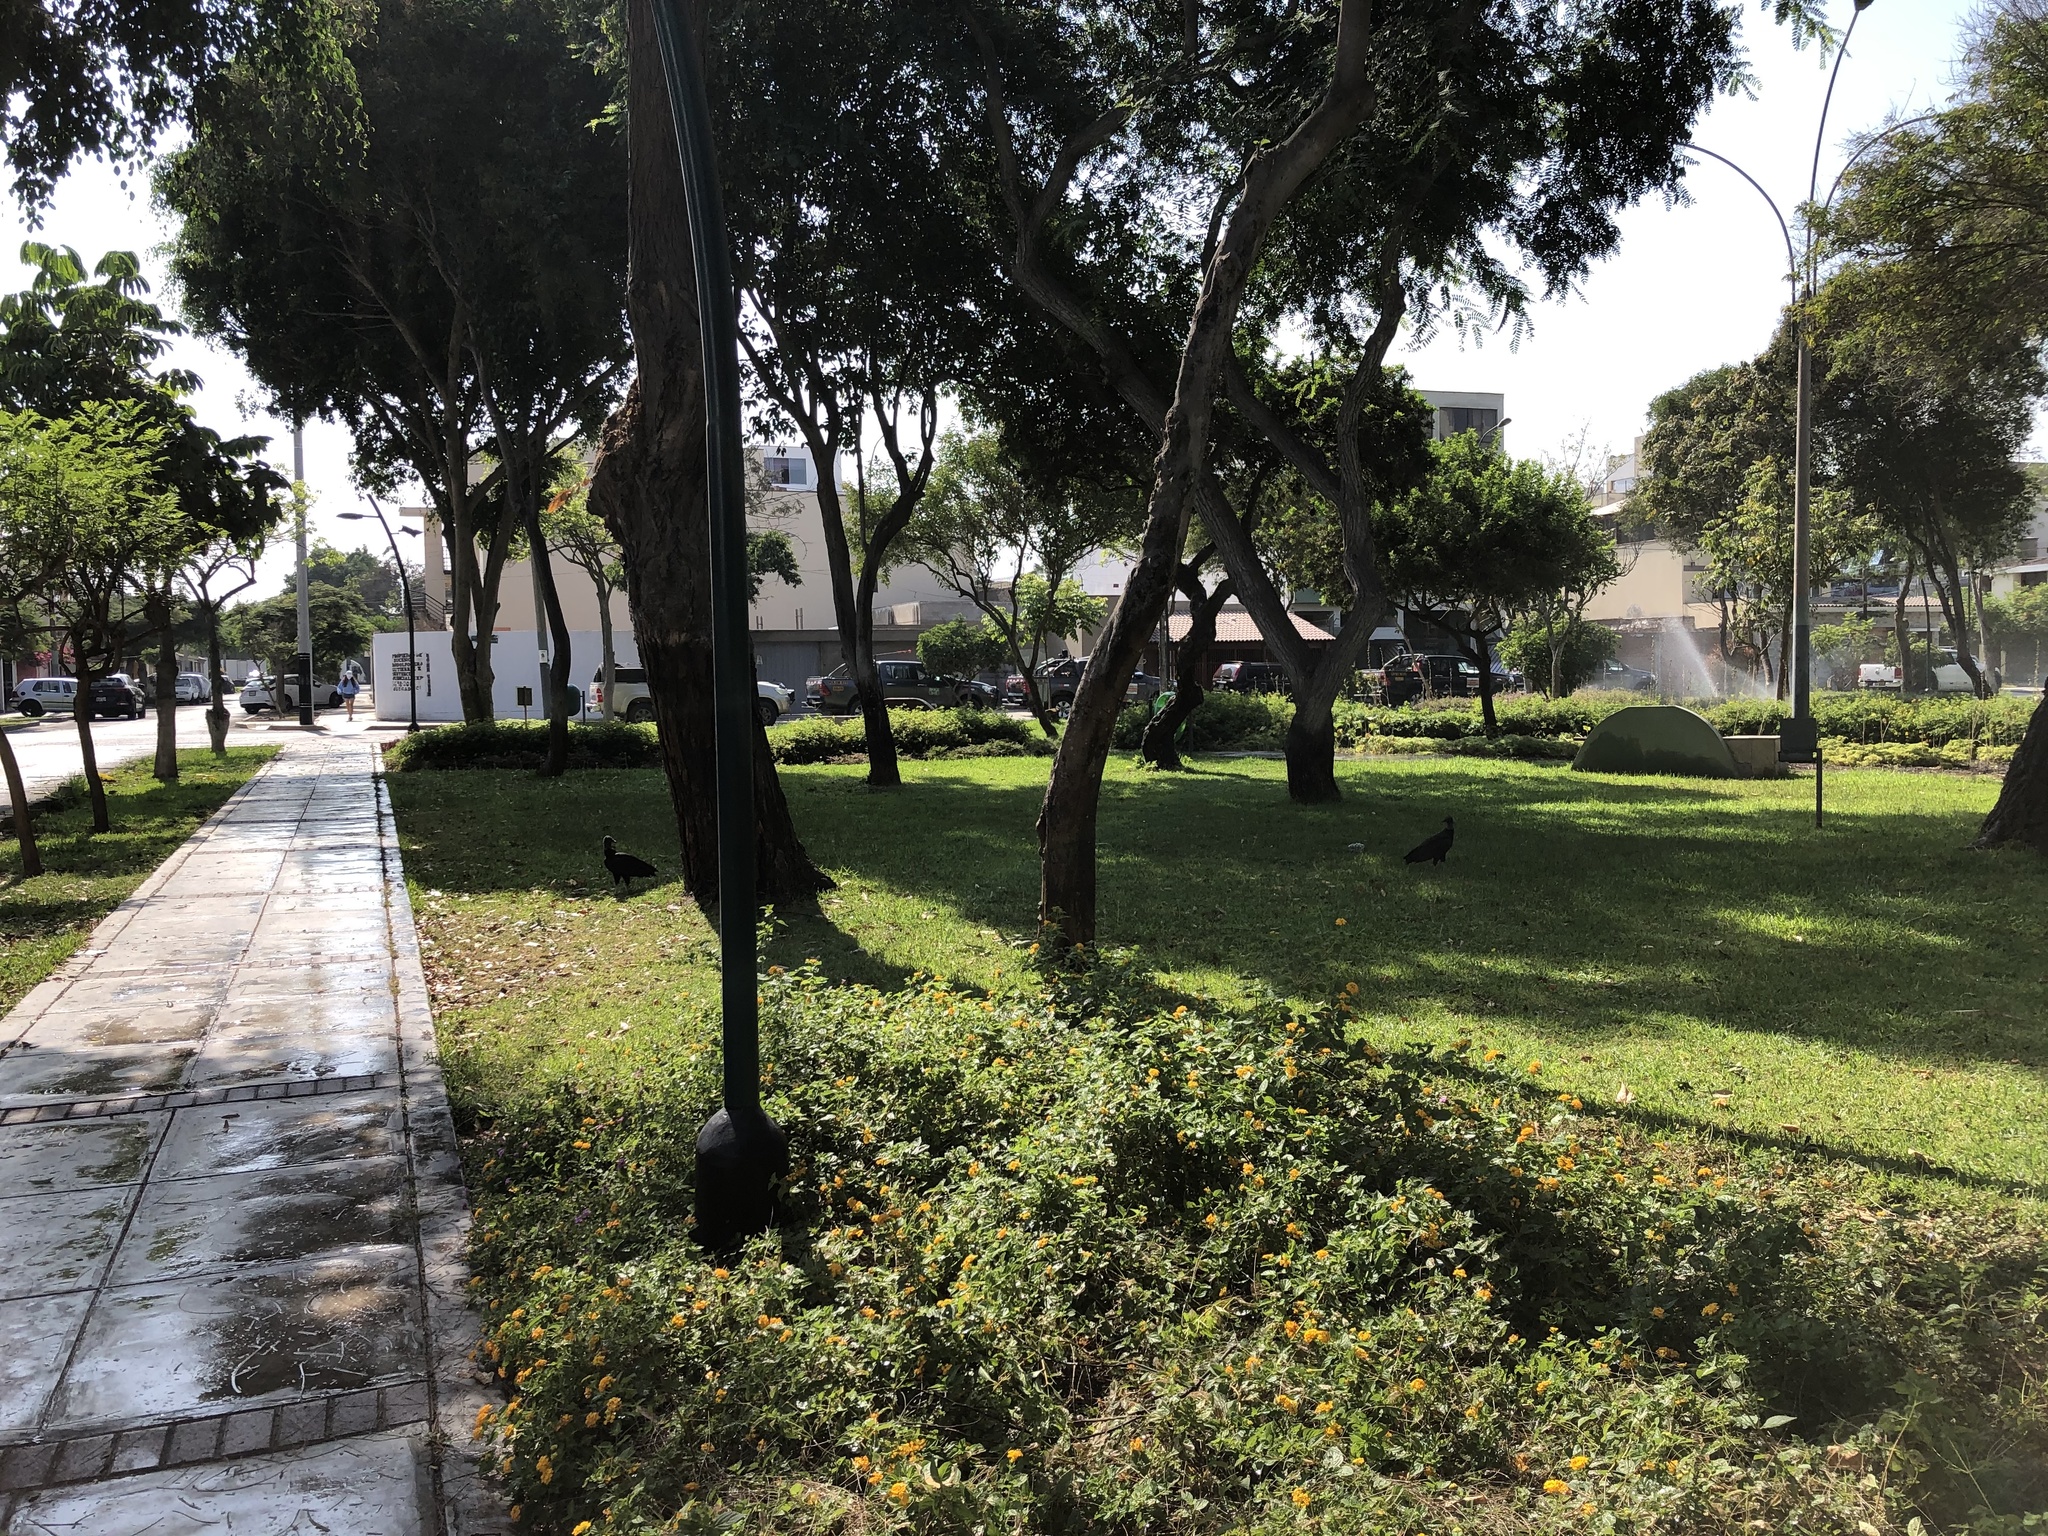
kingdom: Animalia
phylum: Chordata
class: Aves
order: Accipitriformes
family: Cathartidae
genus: Coragyps
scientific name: Coragyps atratus
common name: Black vulture
